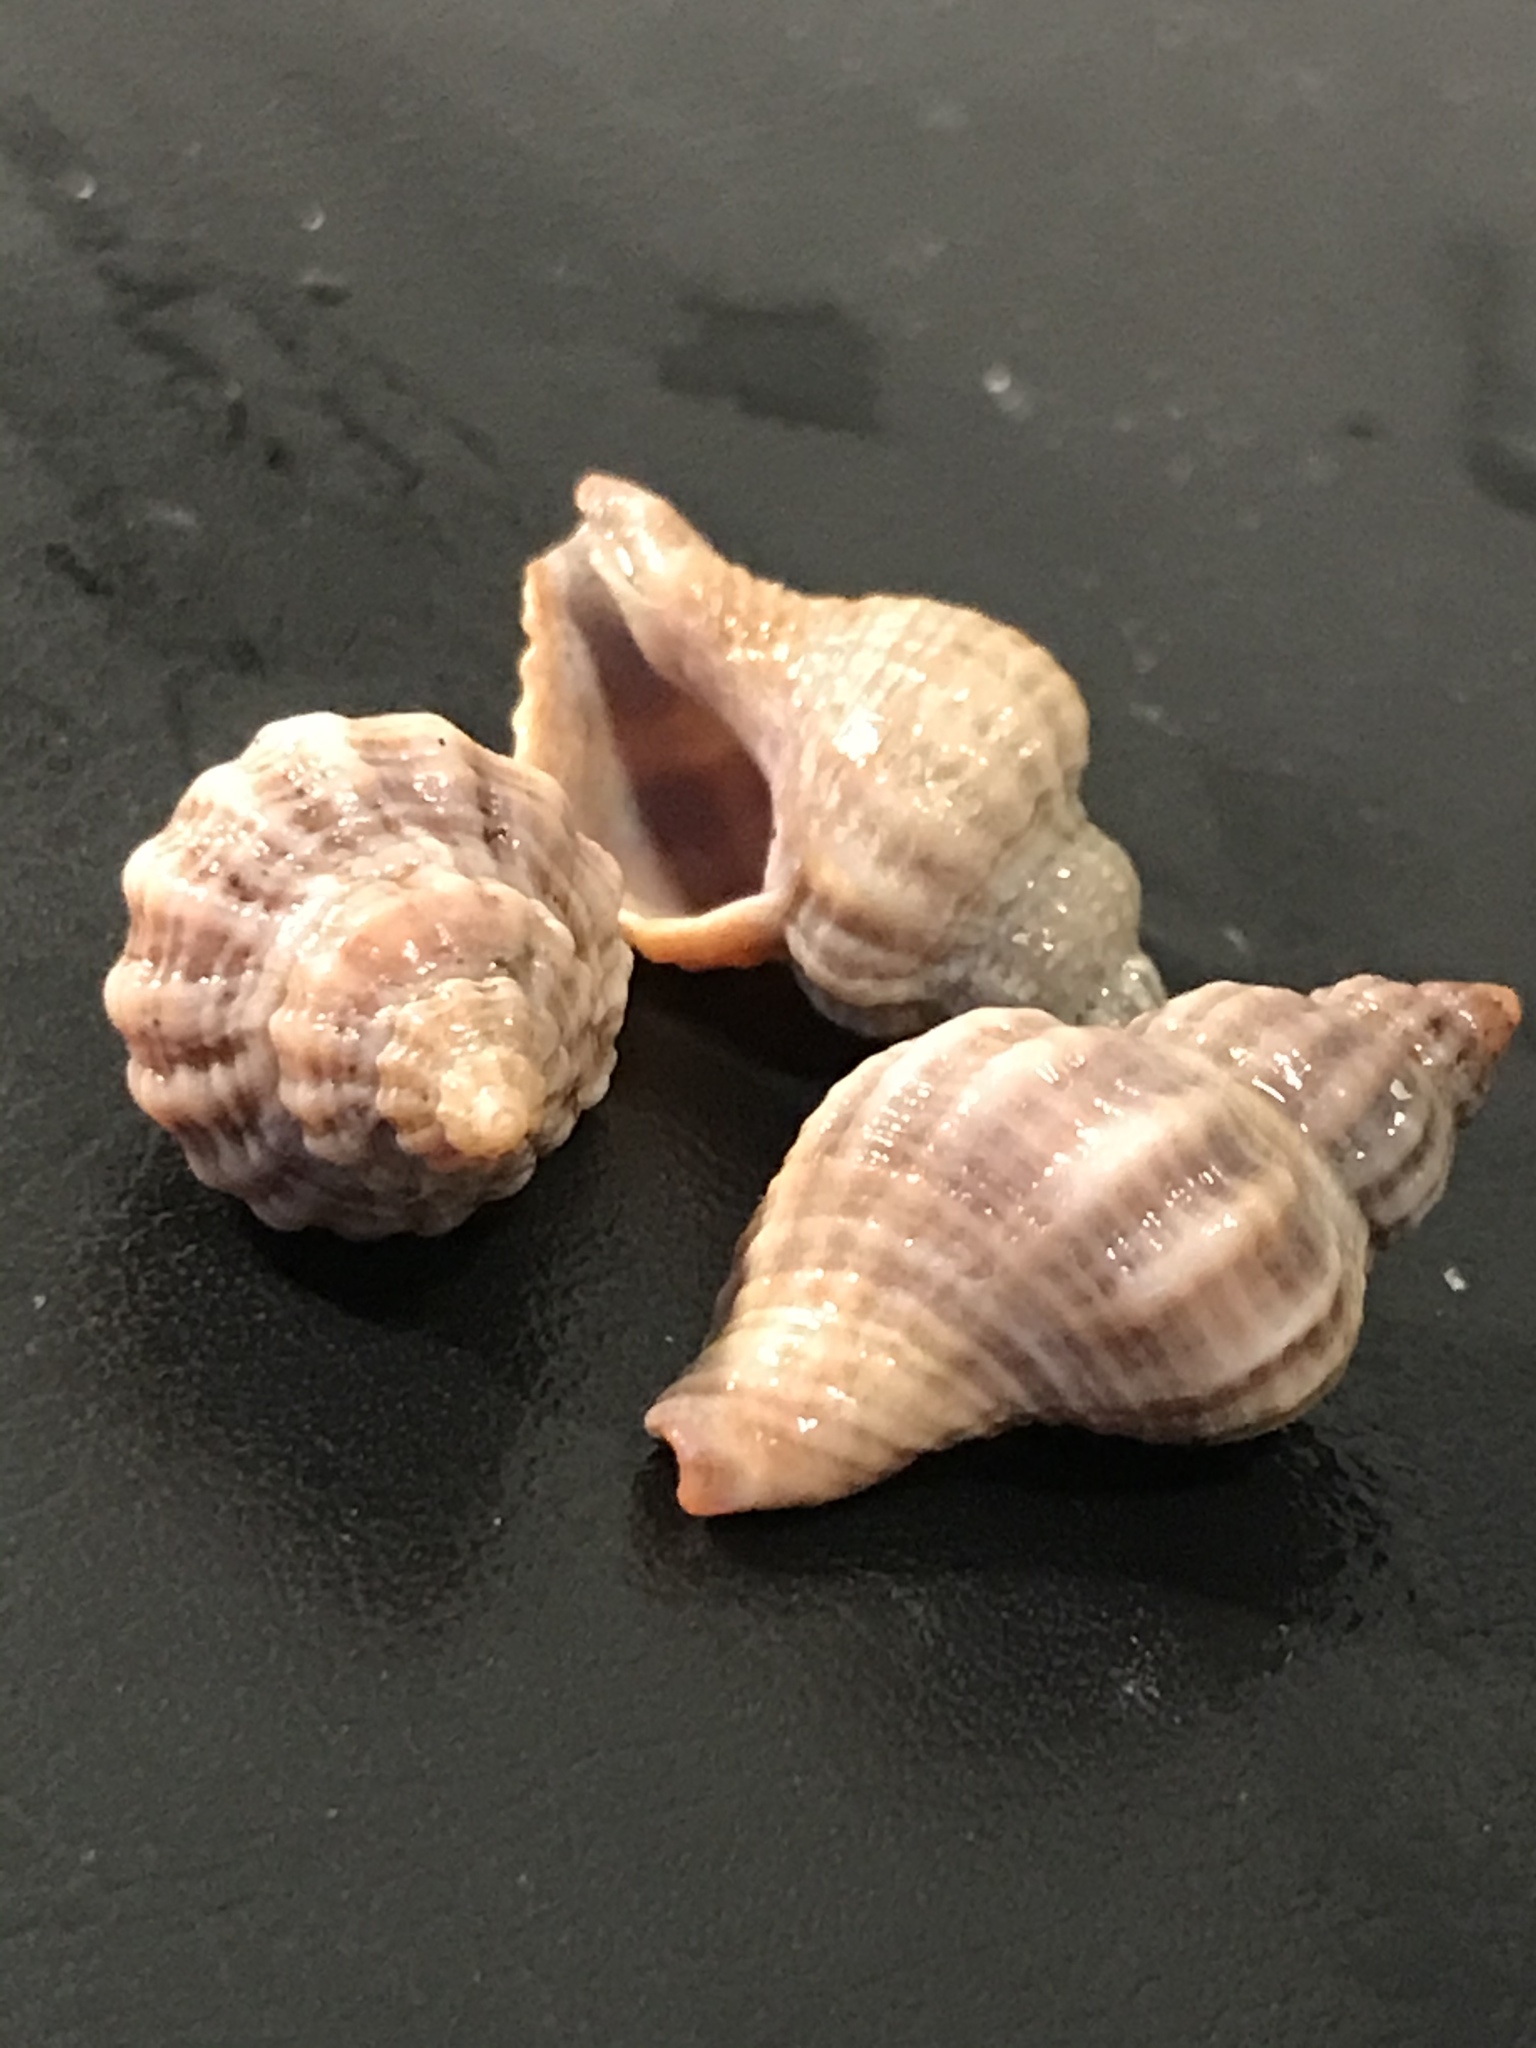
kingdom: Animalia
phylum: Mollusca
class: Gastropoda
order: Neogastropoda
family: Muricidae
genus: Urosalpinx
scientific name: Urosalpinx cinerea
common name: American sting winkle
